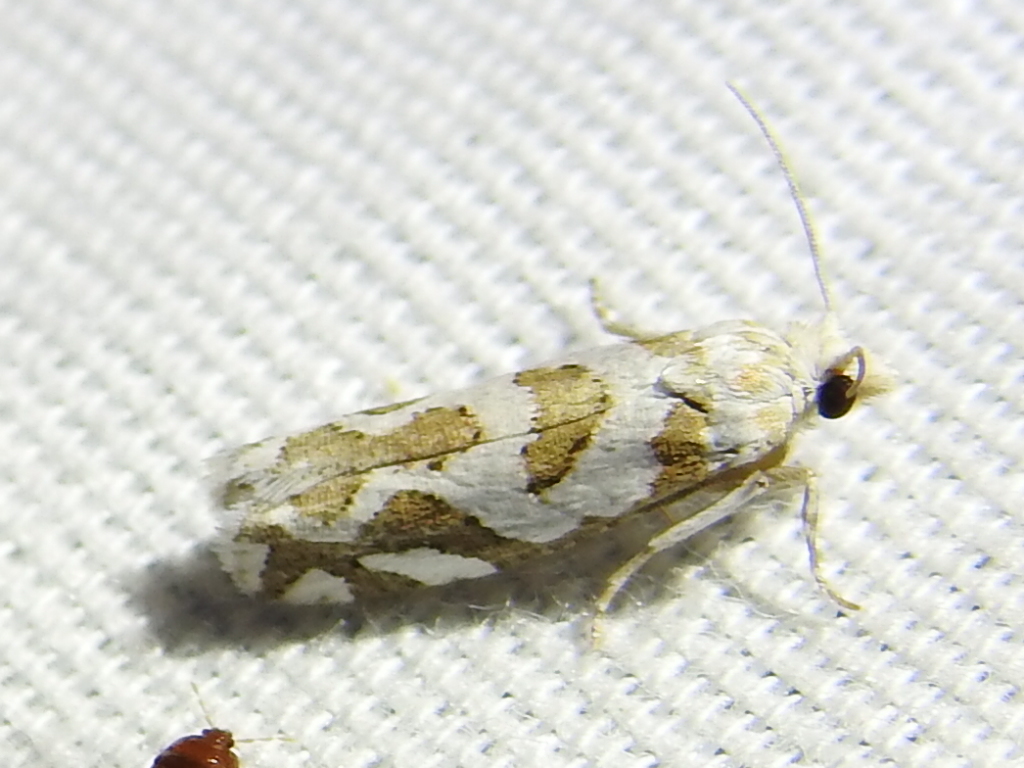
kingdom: Animalia
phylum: Arthropoda
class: Insecta
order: Lepidoptera
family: Tortricidae
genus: Pelochrista
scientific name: Pelochrista bolanderana
